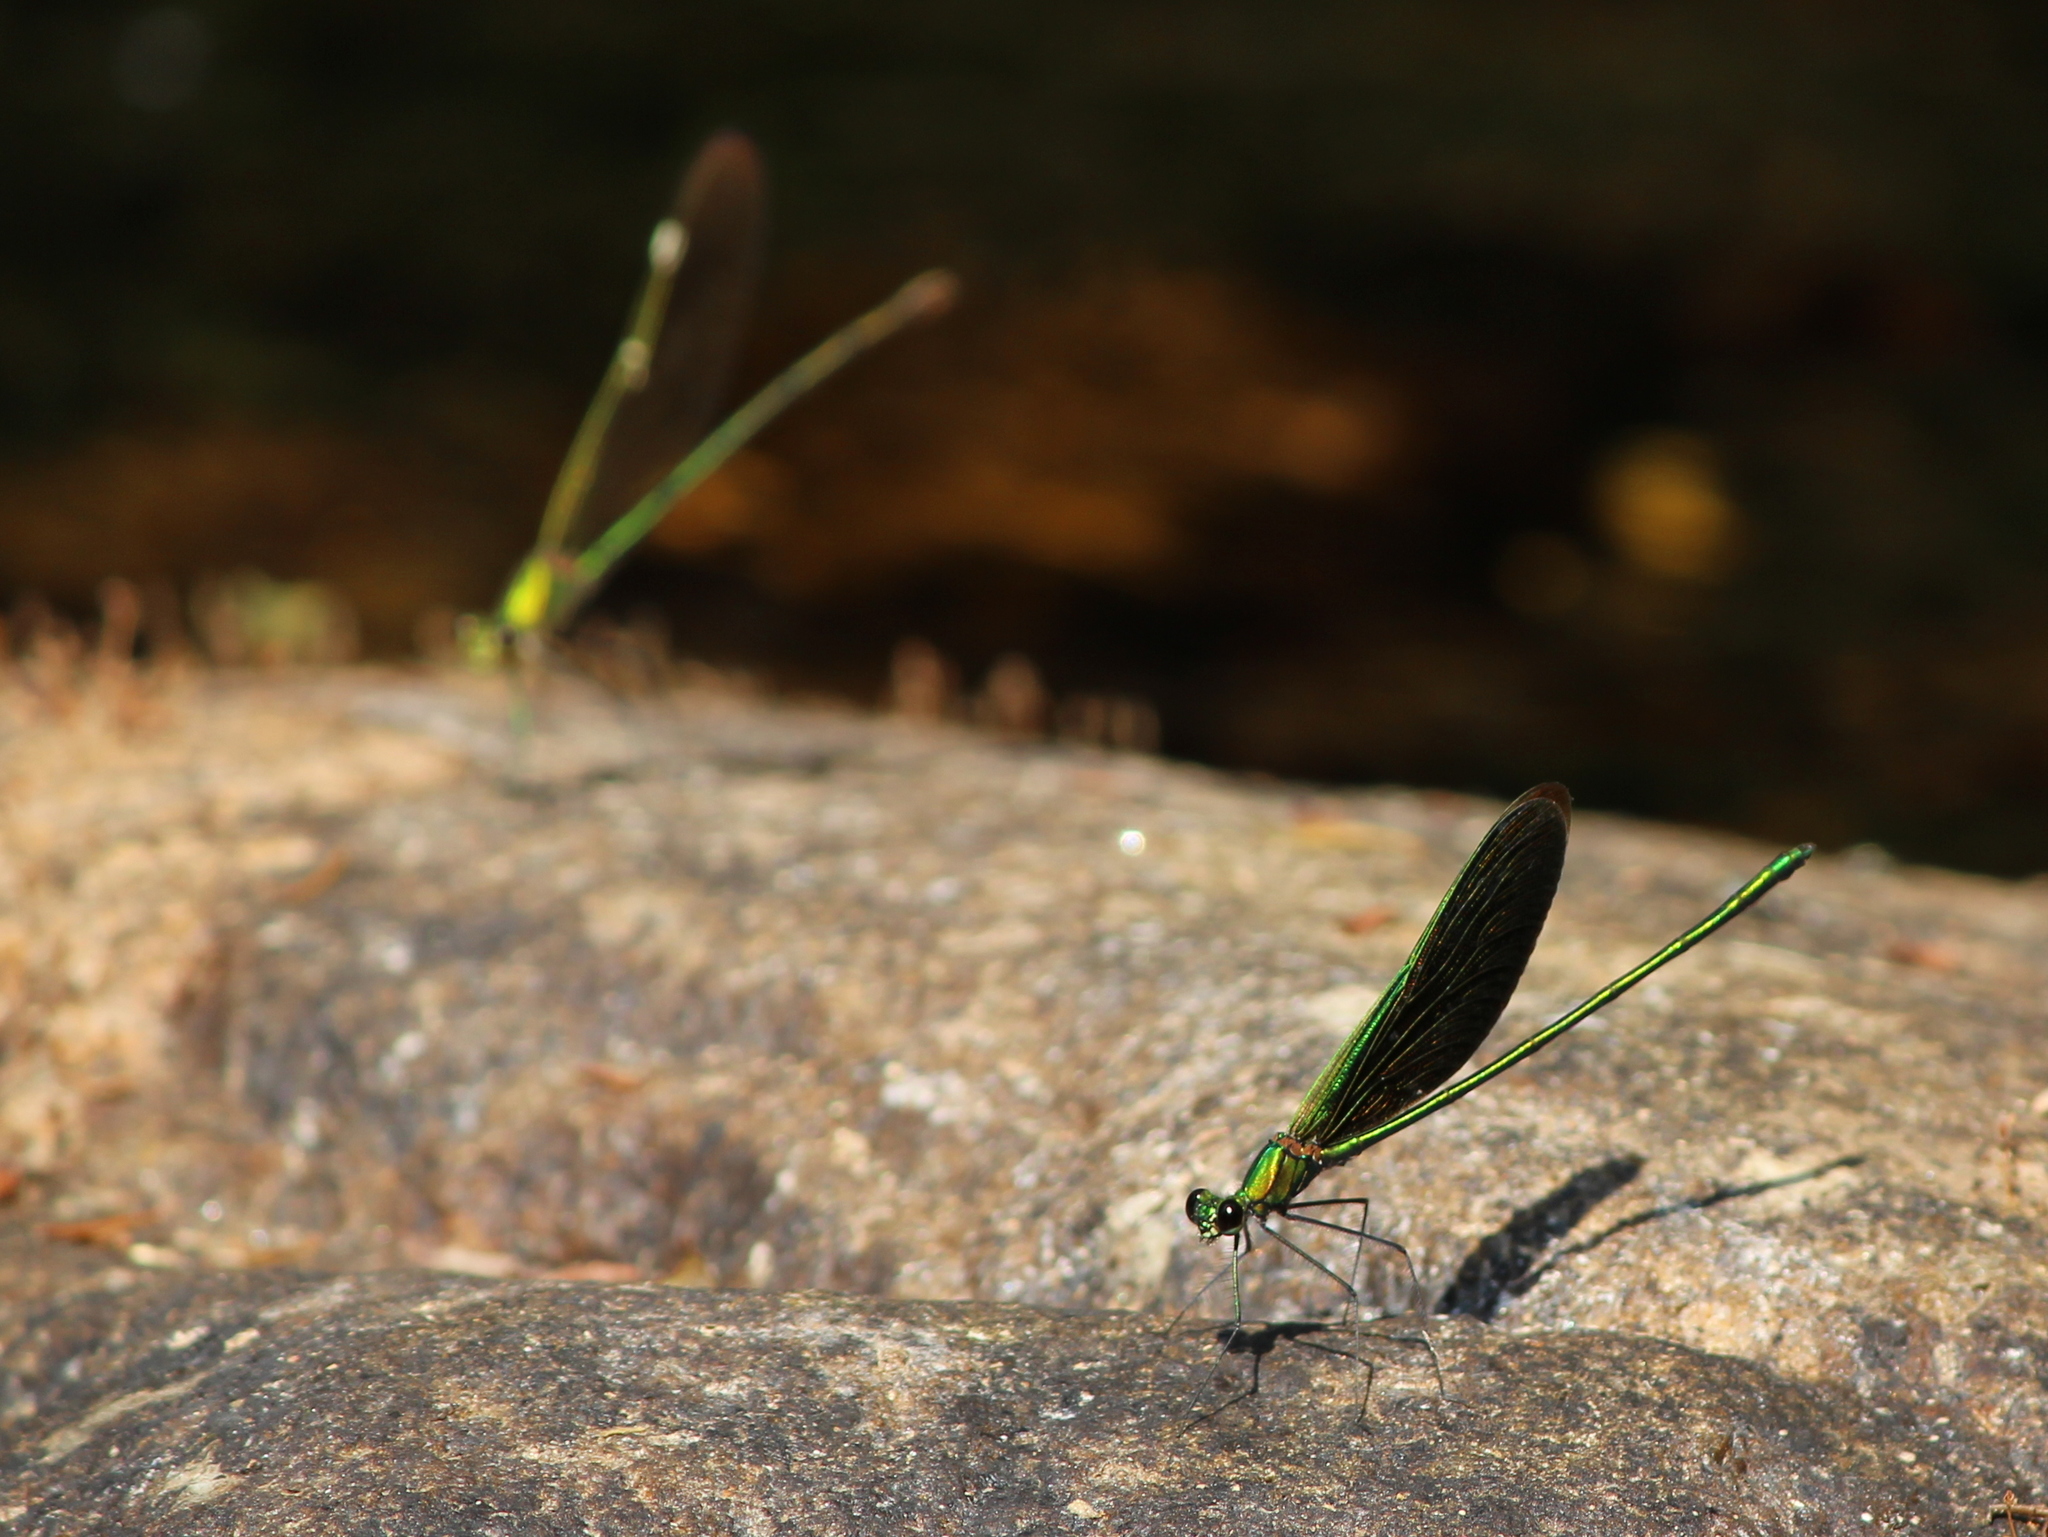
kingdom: Animalia
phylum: Arthropoda
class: Insecta
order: Odonata
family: Calopterygidae
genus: Neurobasis
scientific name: Neurobasis chinensis
